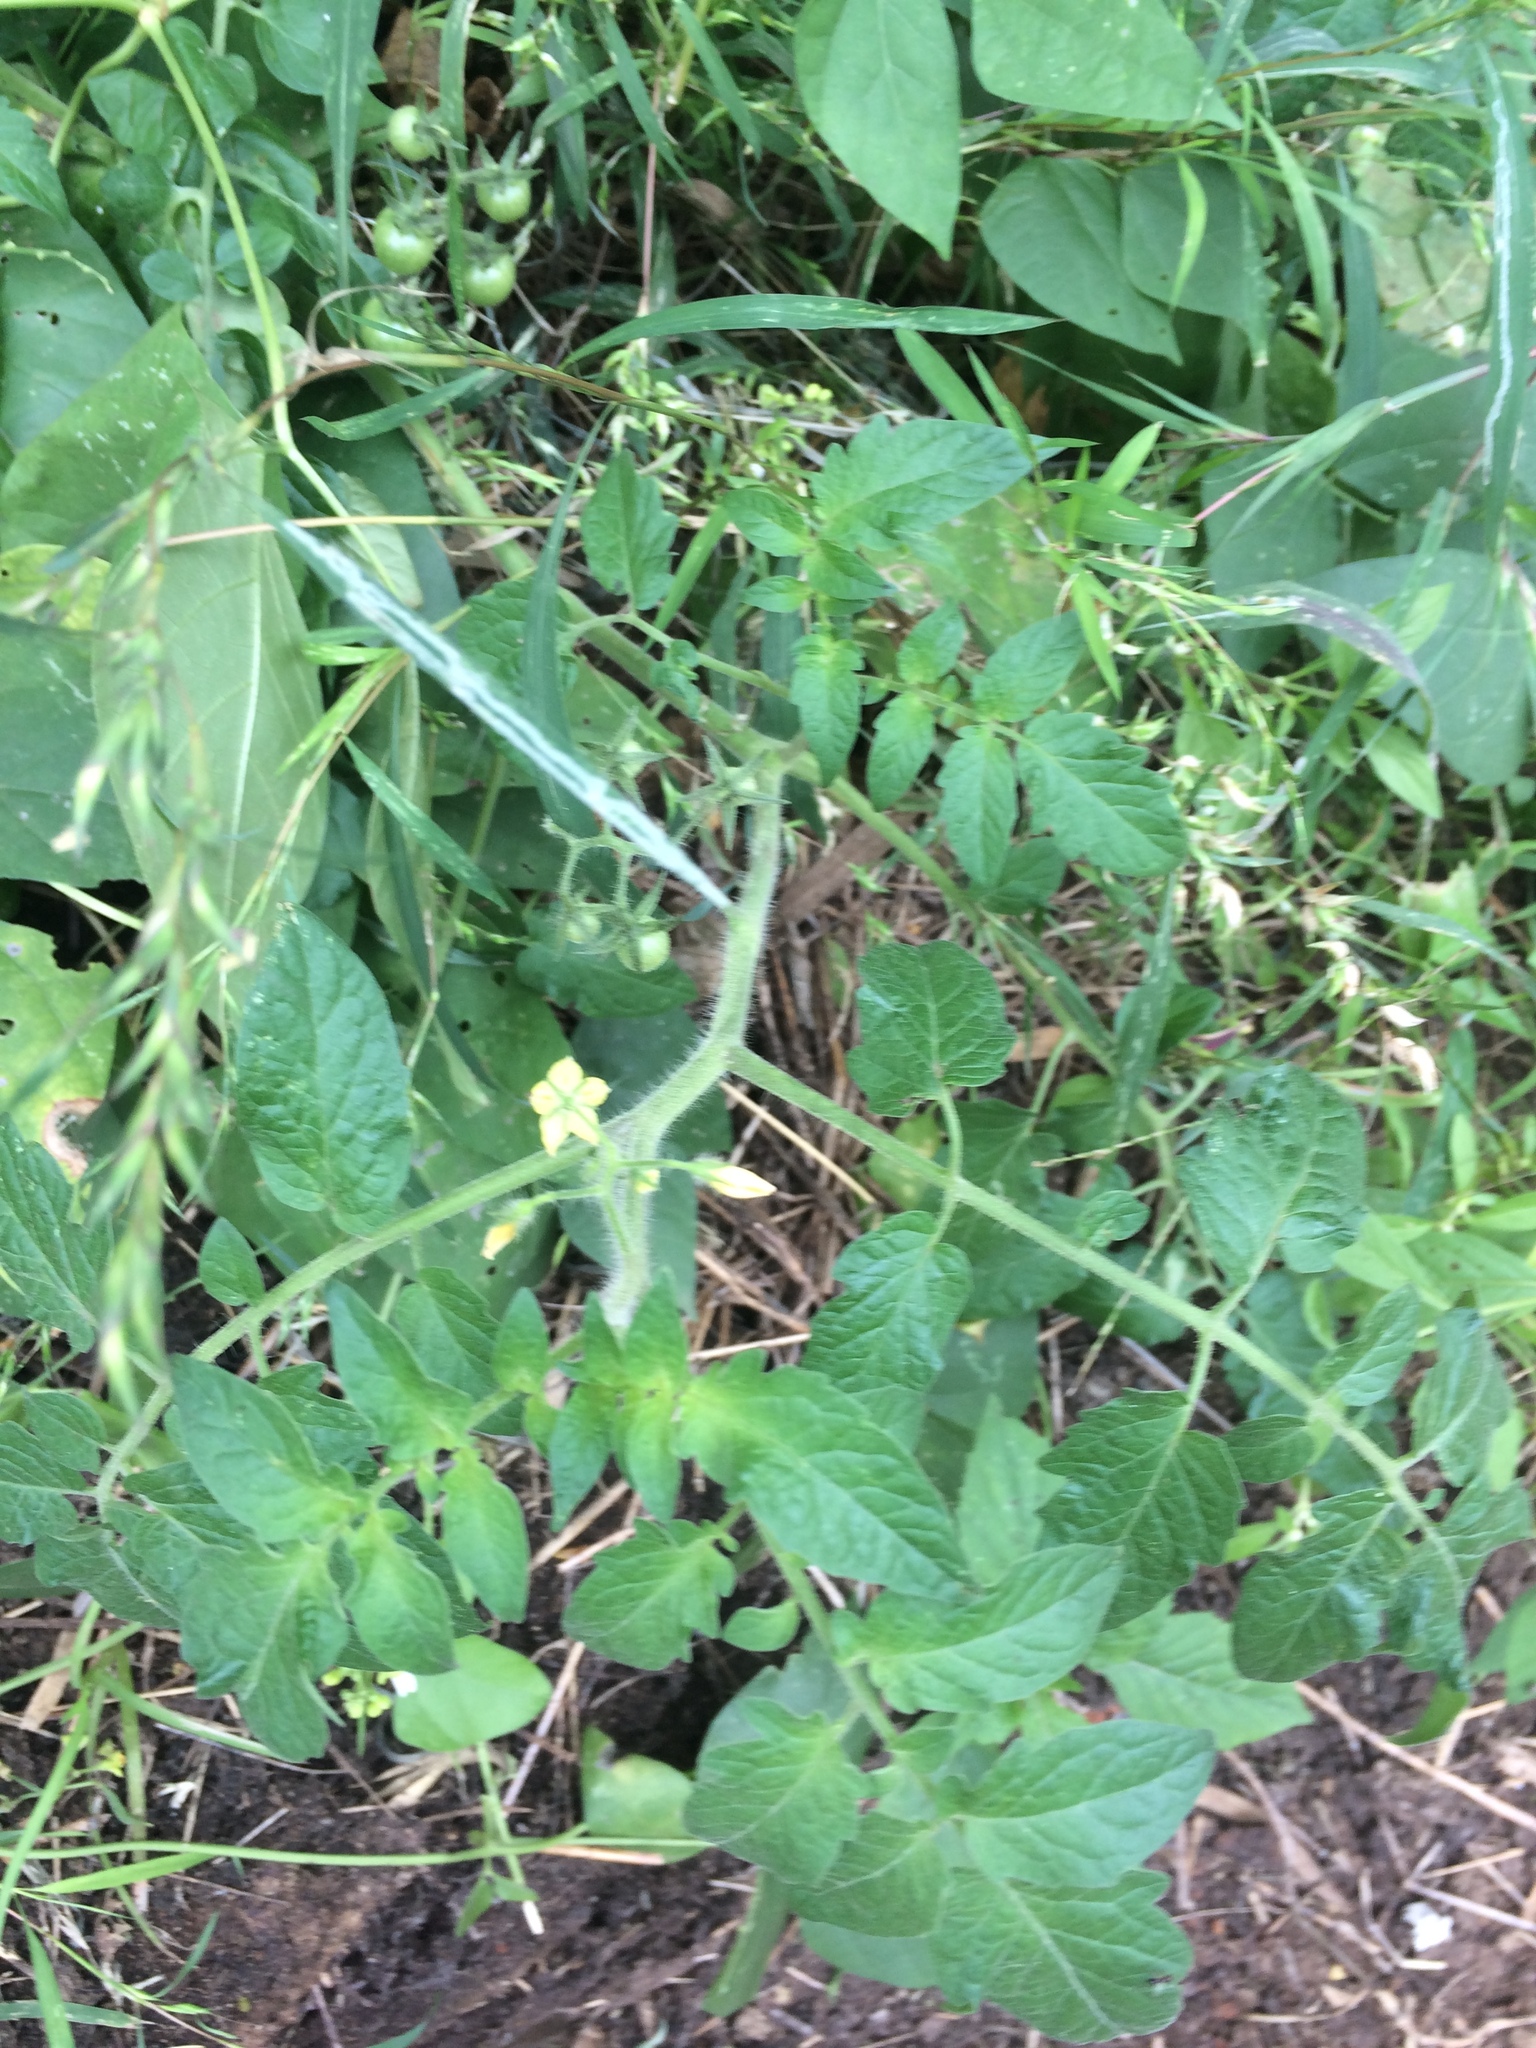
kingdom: Plantae
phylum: Tracheophyta
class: Magnoliopsida
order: Solanales
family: Solanaceae
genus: Solanum
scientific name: Solanum lycopersicum
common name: Garden tomato
